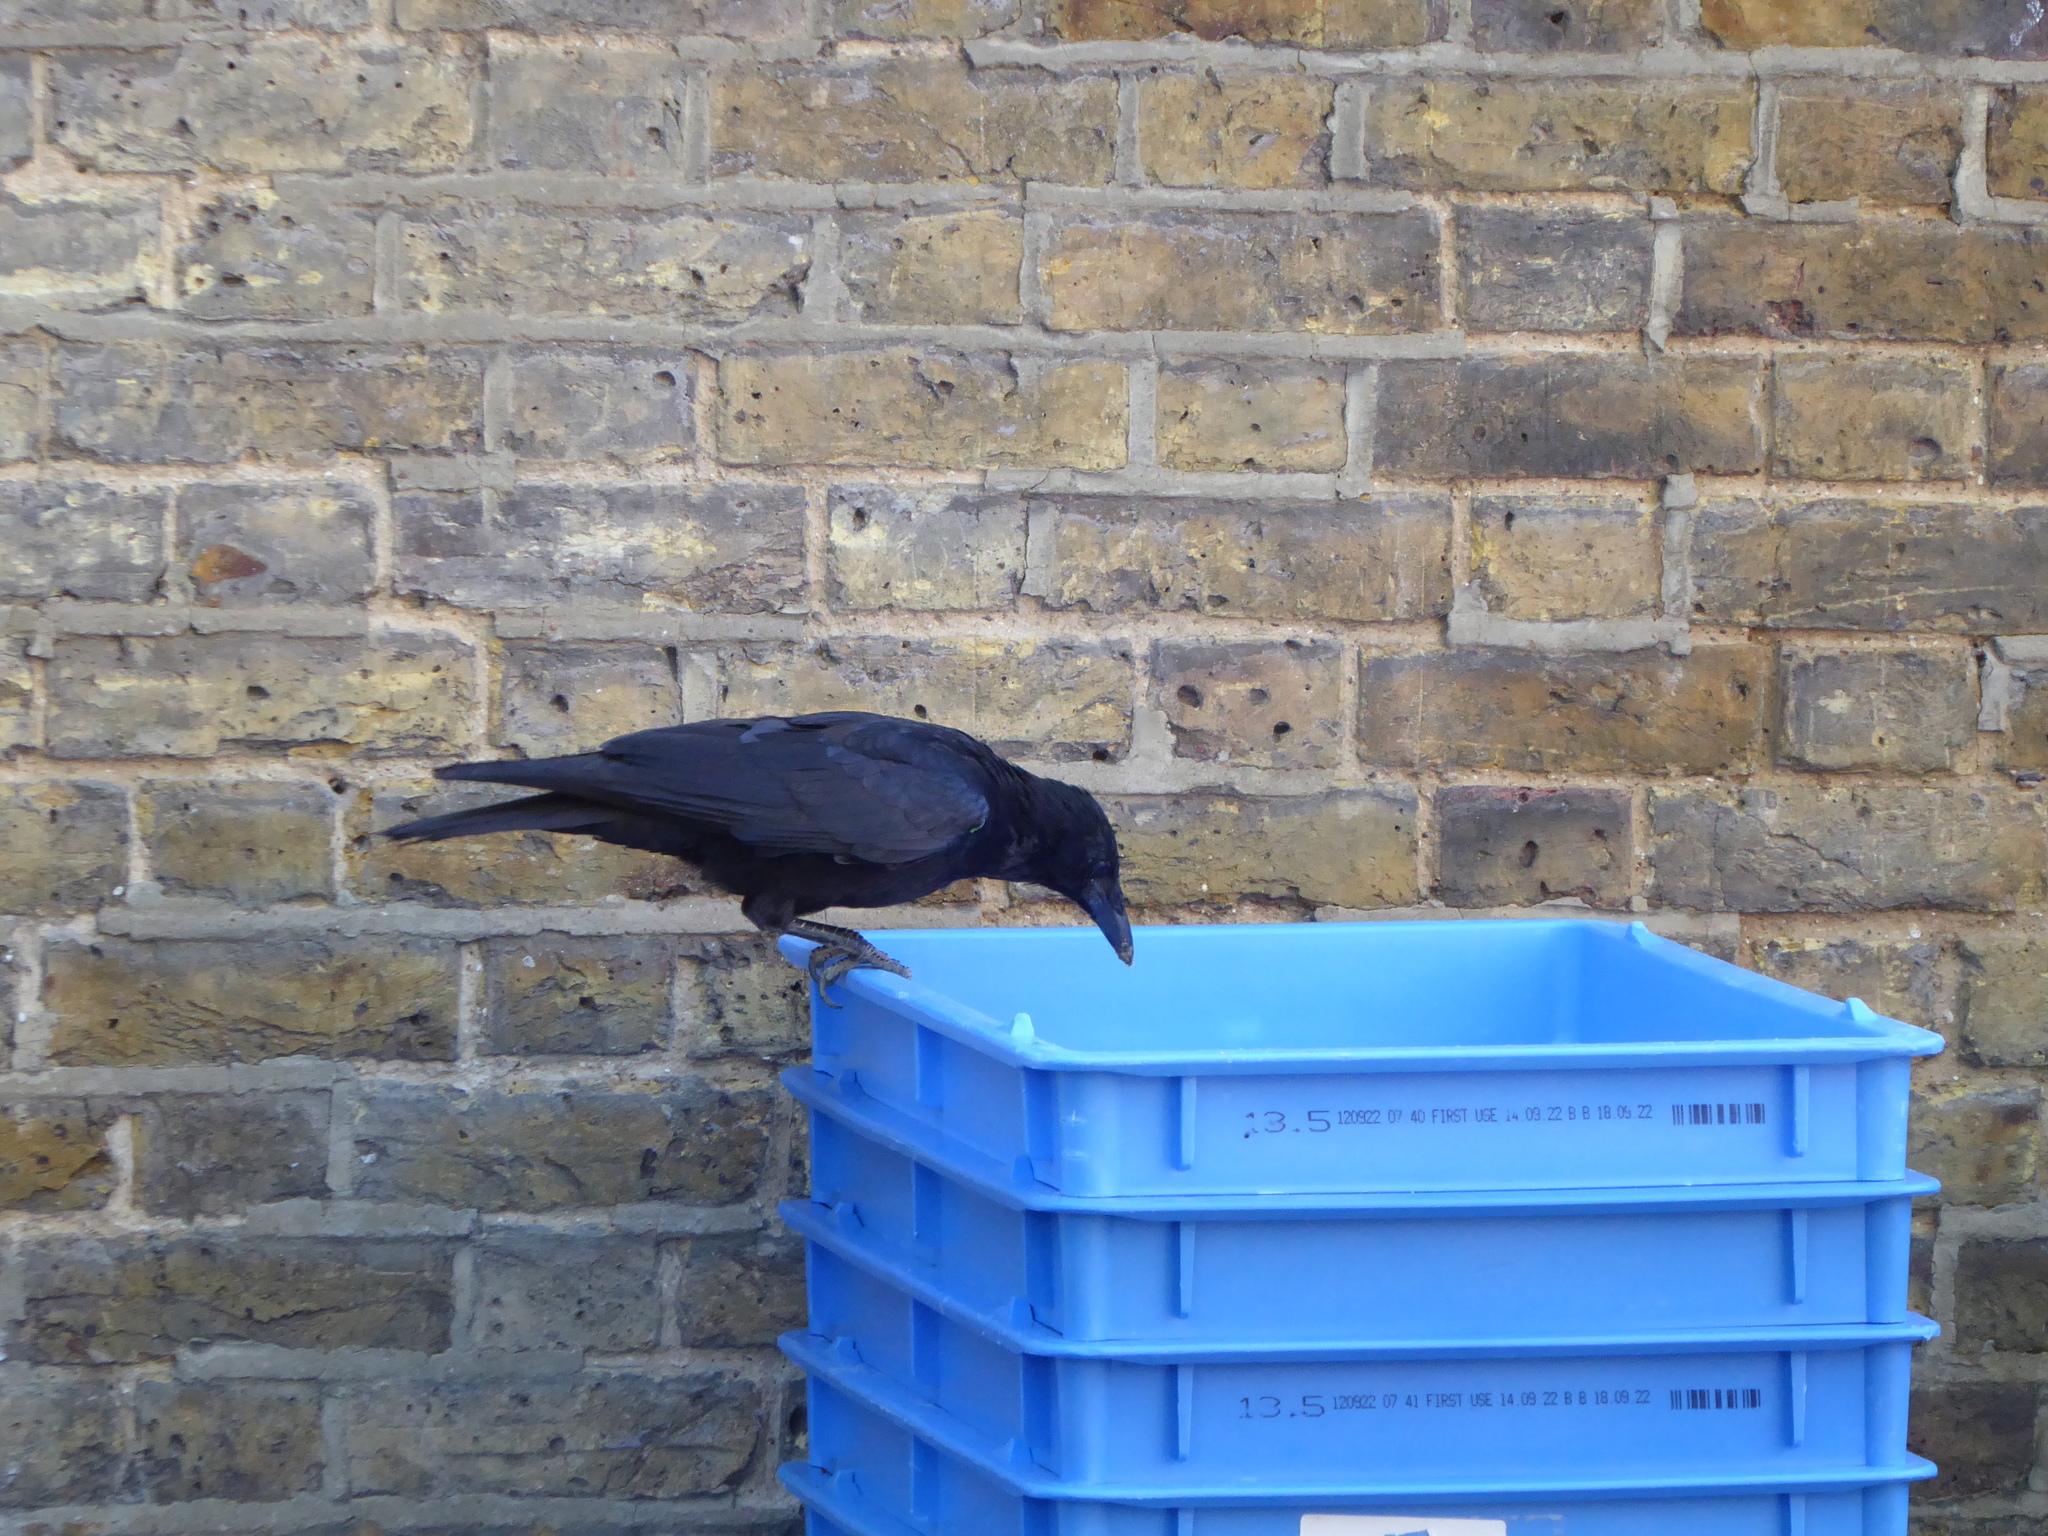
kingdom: Animalia
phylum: Chordata
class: Aves
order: Passeriformes
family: Corvidae
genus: Corvus
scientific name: Corvus corone
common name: Carrion crow
